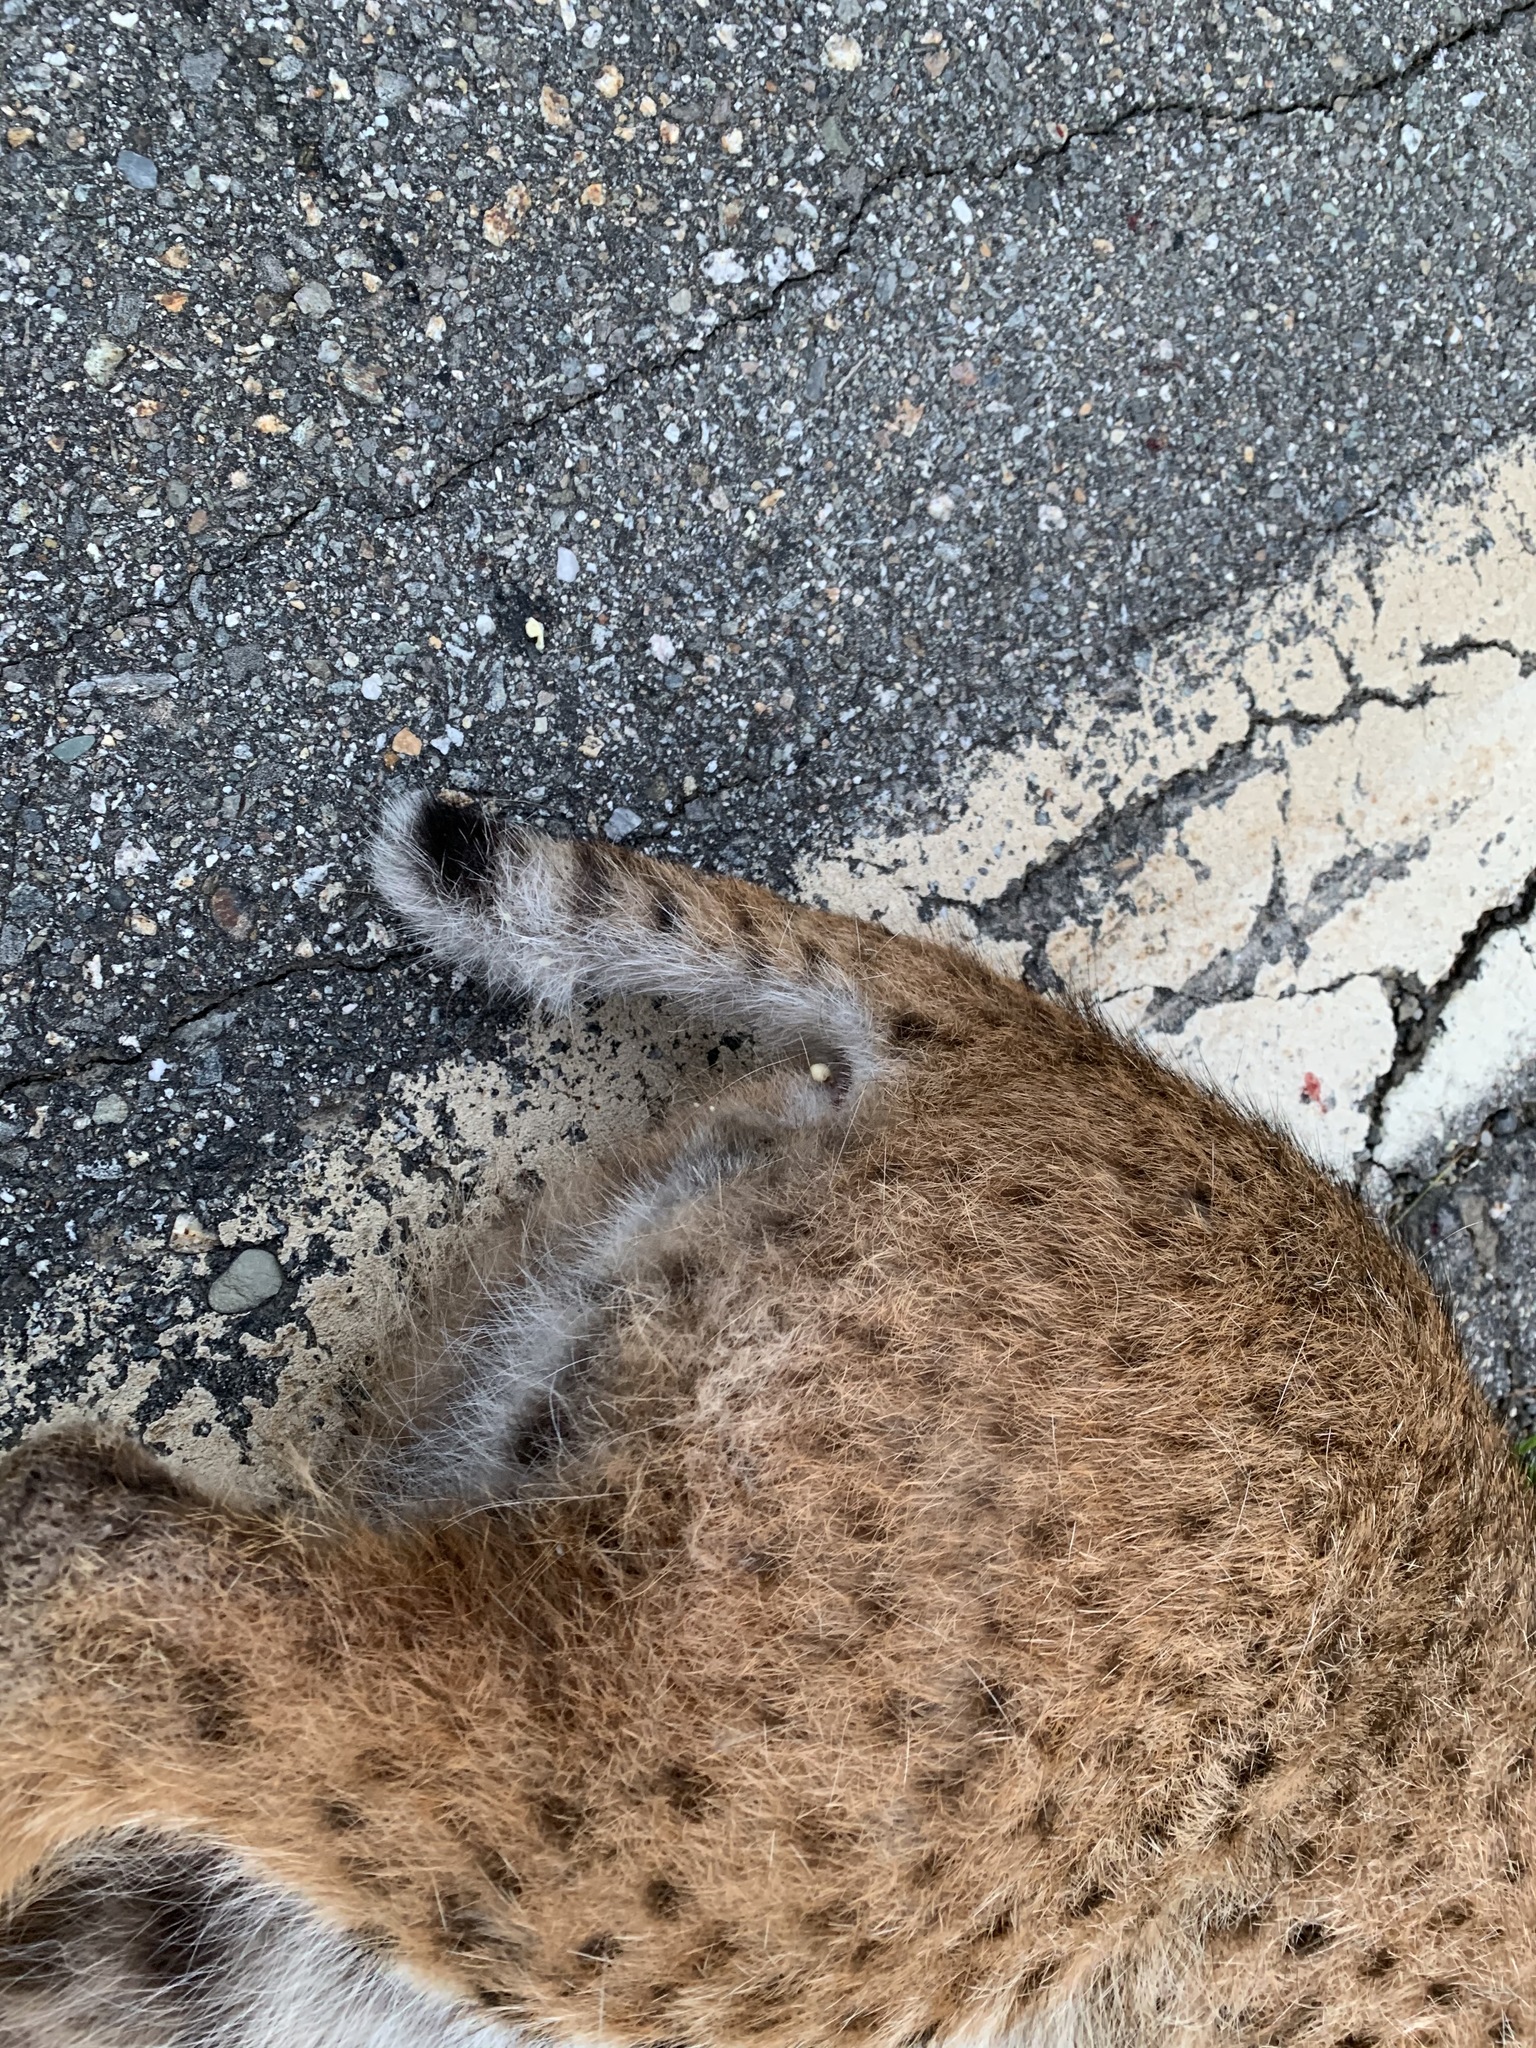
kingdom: Animalia
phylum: Chordata
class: Mammalia
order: Carnivora
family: Felidae
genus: Lynx
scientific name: Lynx rufus
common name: Bobcat
